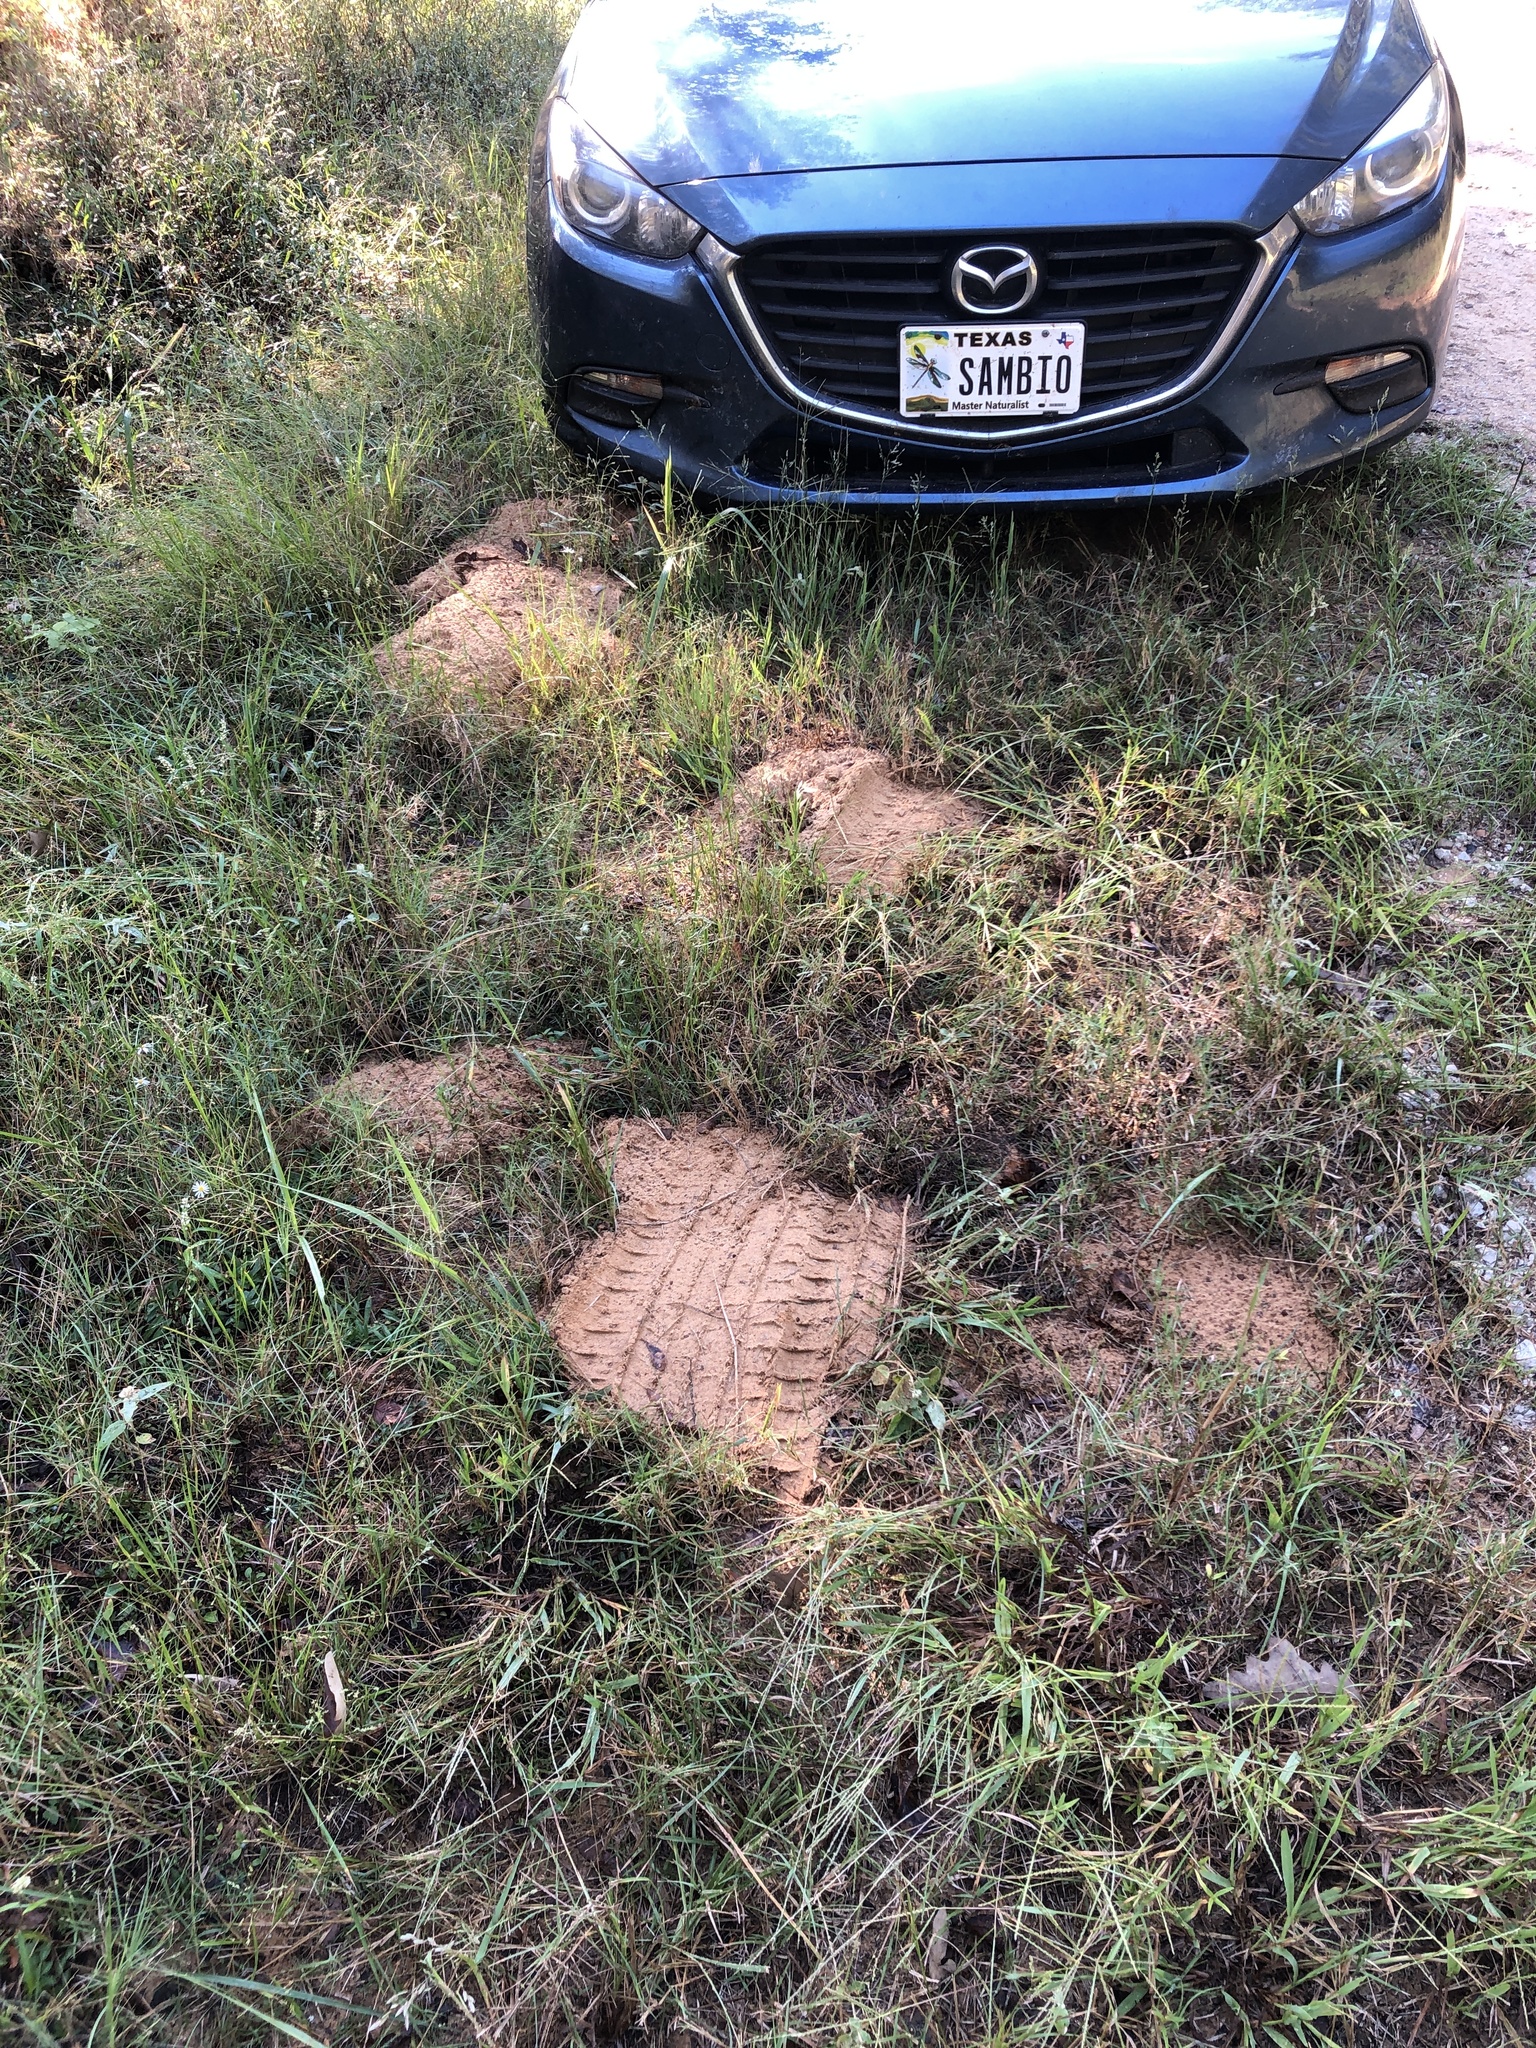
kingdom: Animalia
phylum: Chordata
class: Mammalia
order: Rodentia
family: Geomyidae
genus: Geomys
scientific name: Geomys breviceps
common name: Baird's pocket gopher
